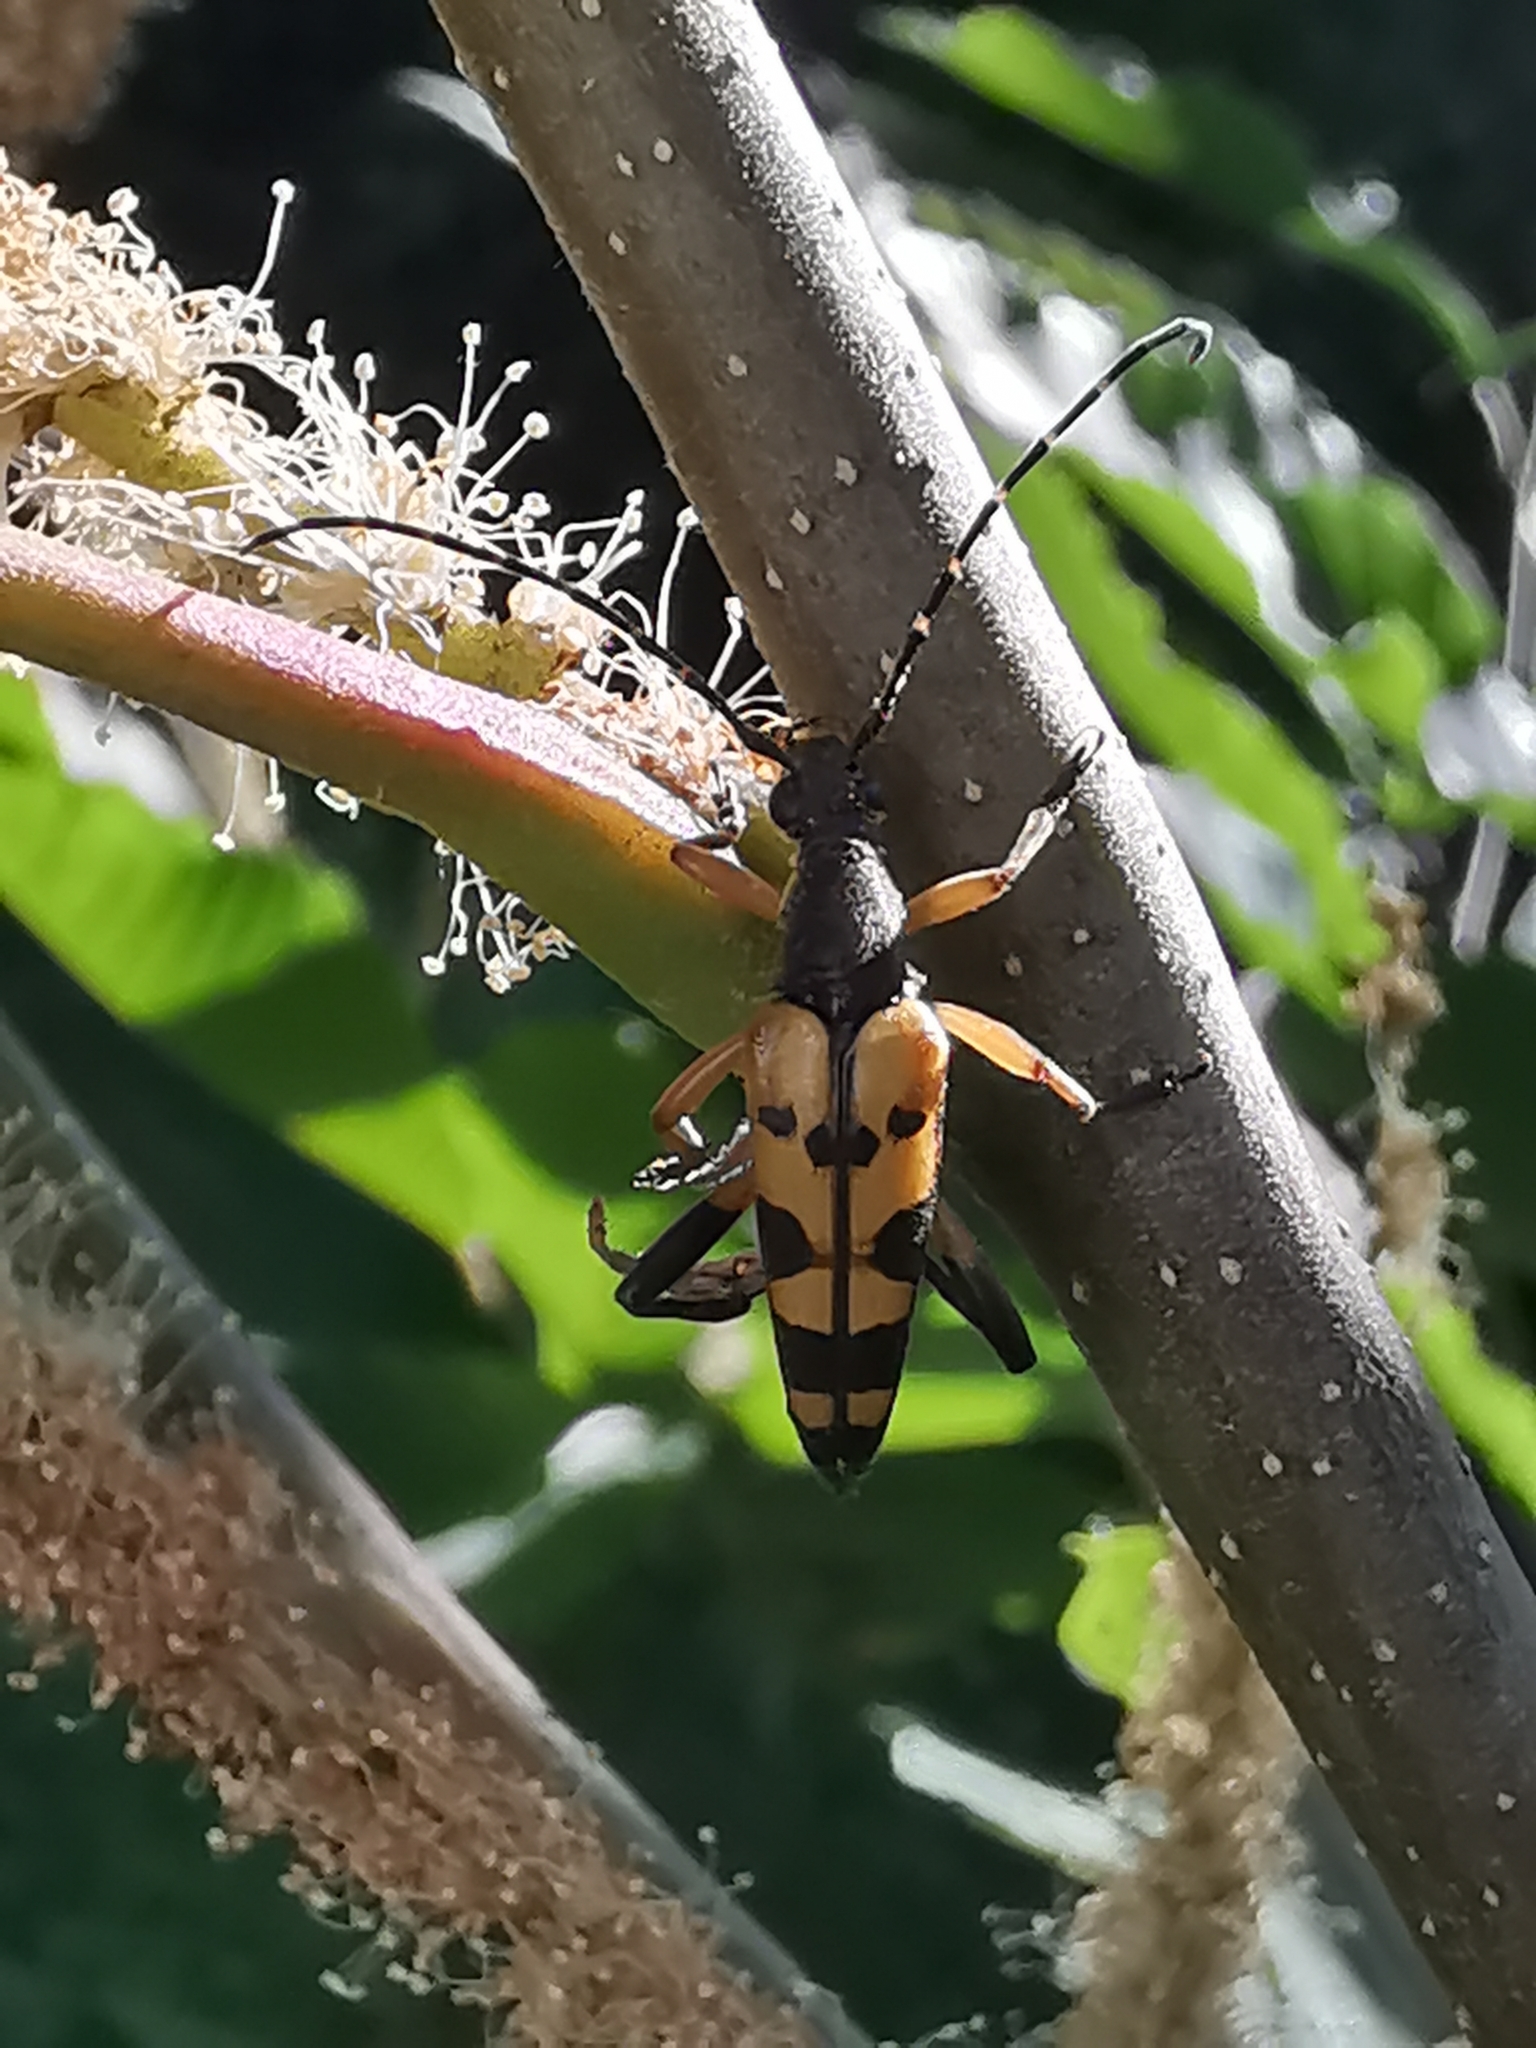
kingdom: Animalia
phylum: Arthropoda
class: Insecta
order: Coleoptera
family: Cerambycidae
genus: Rutpela
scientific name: Rutpela maculata
